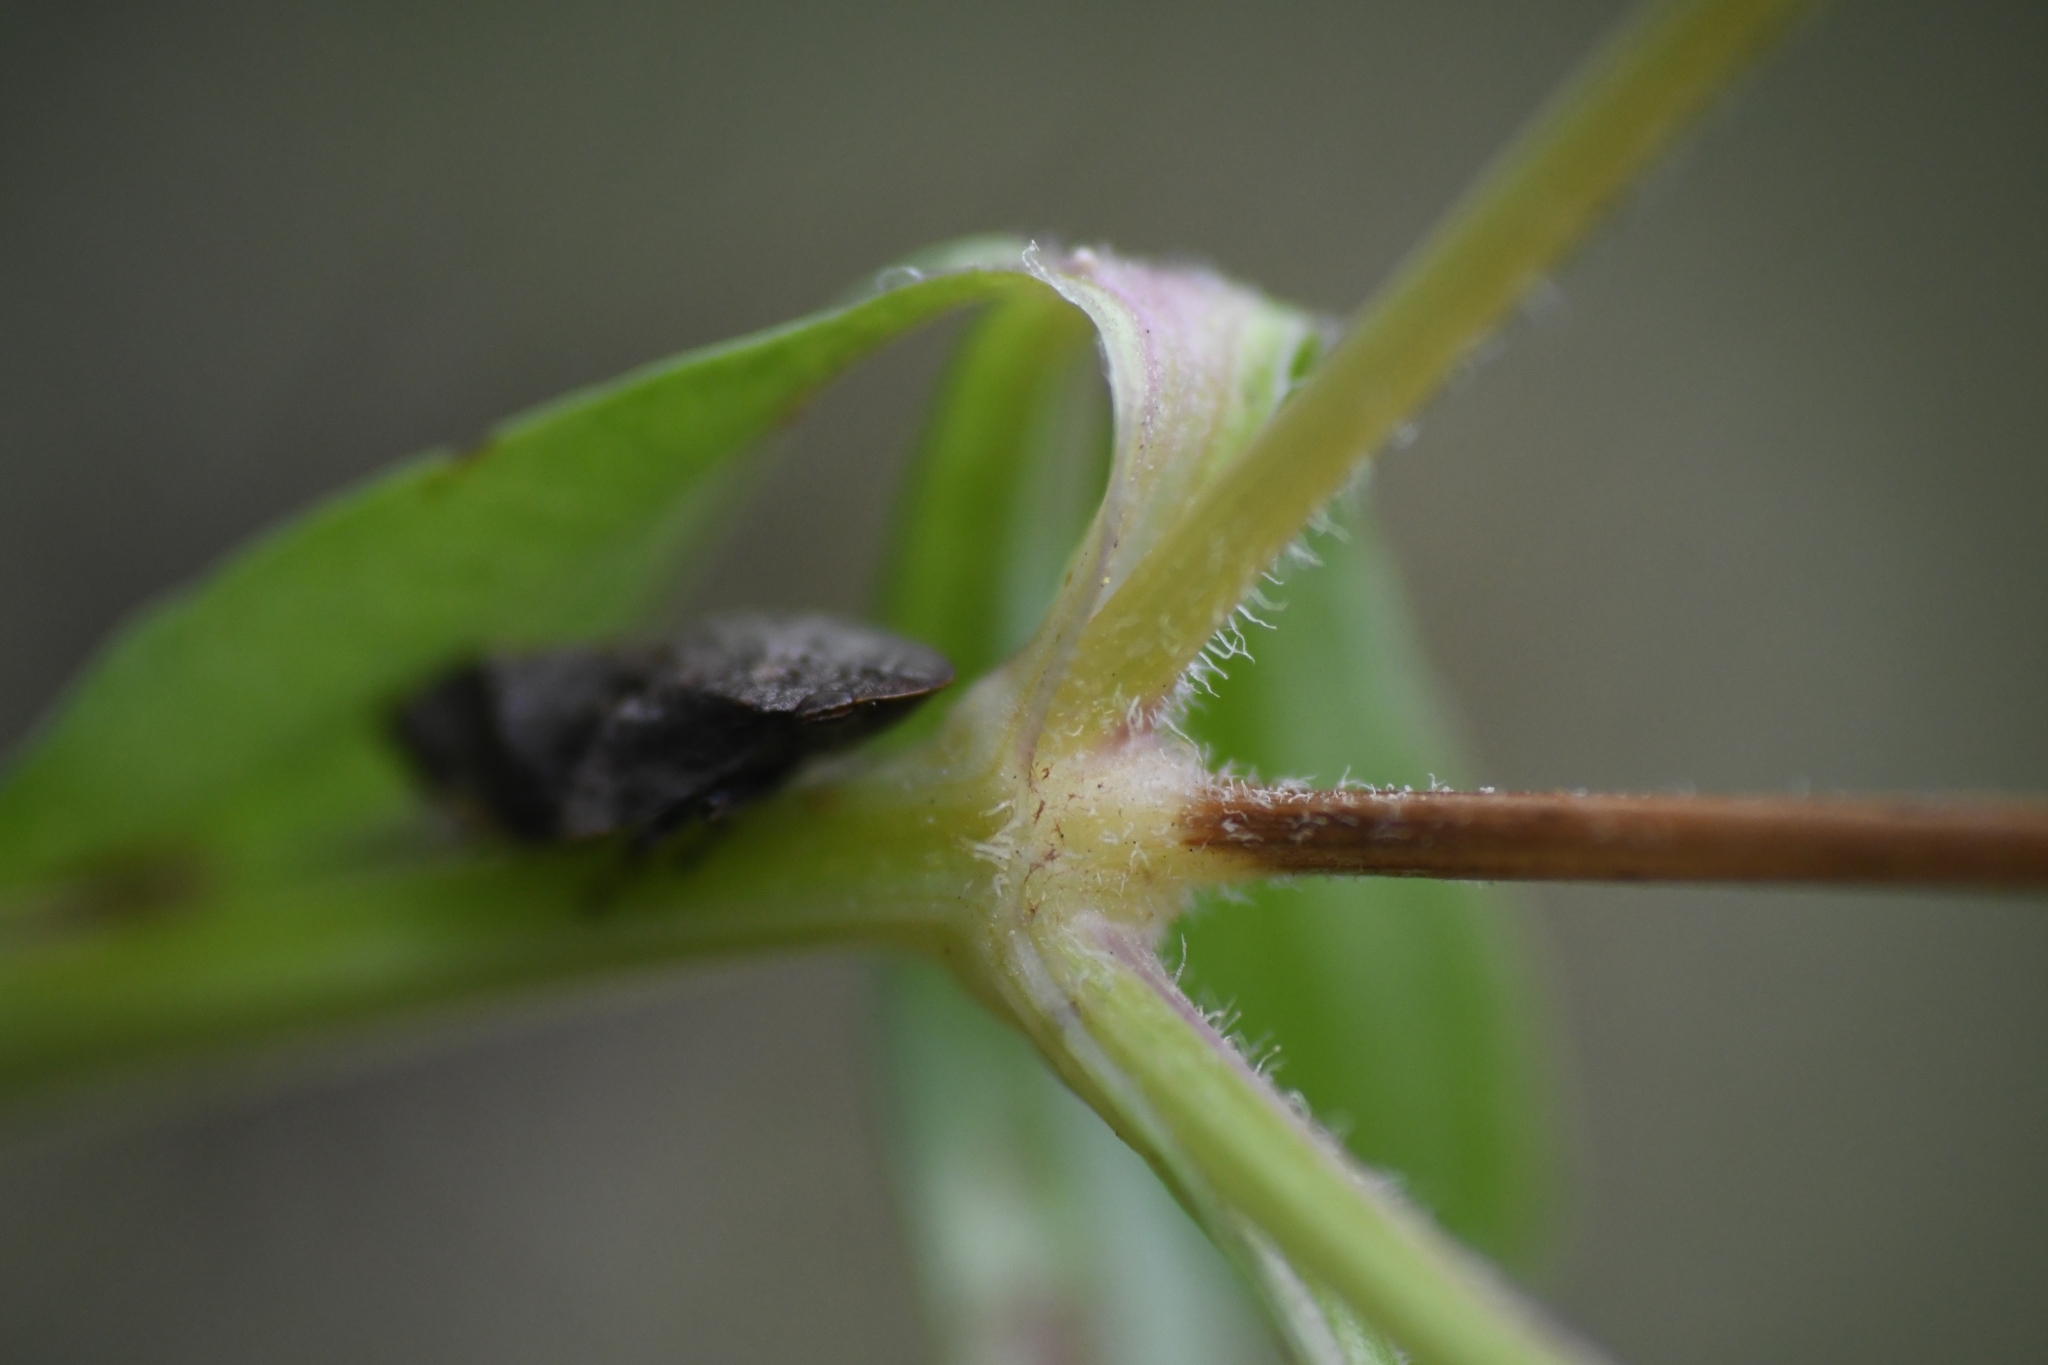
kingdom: Animalia
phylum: Arthropoda
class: Insecta
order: Hemiptera
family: Aphrophoridae
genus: Lepyronia
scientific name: Lepyronia quadrangularis
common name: Diamond-backed spittlebug
